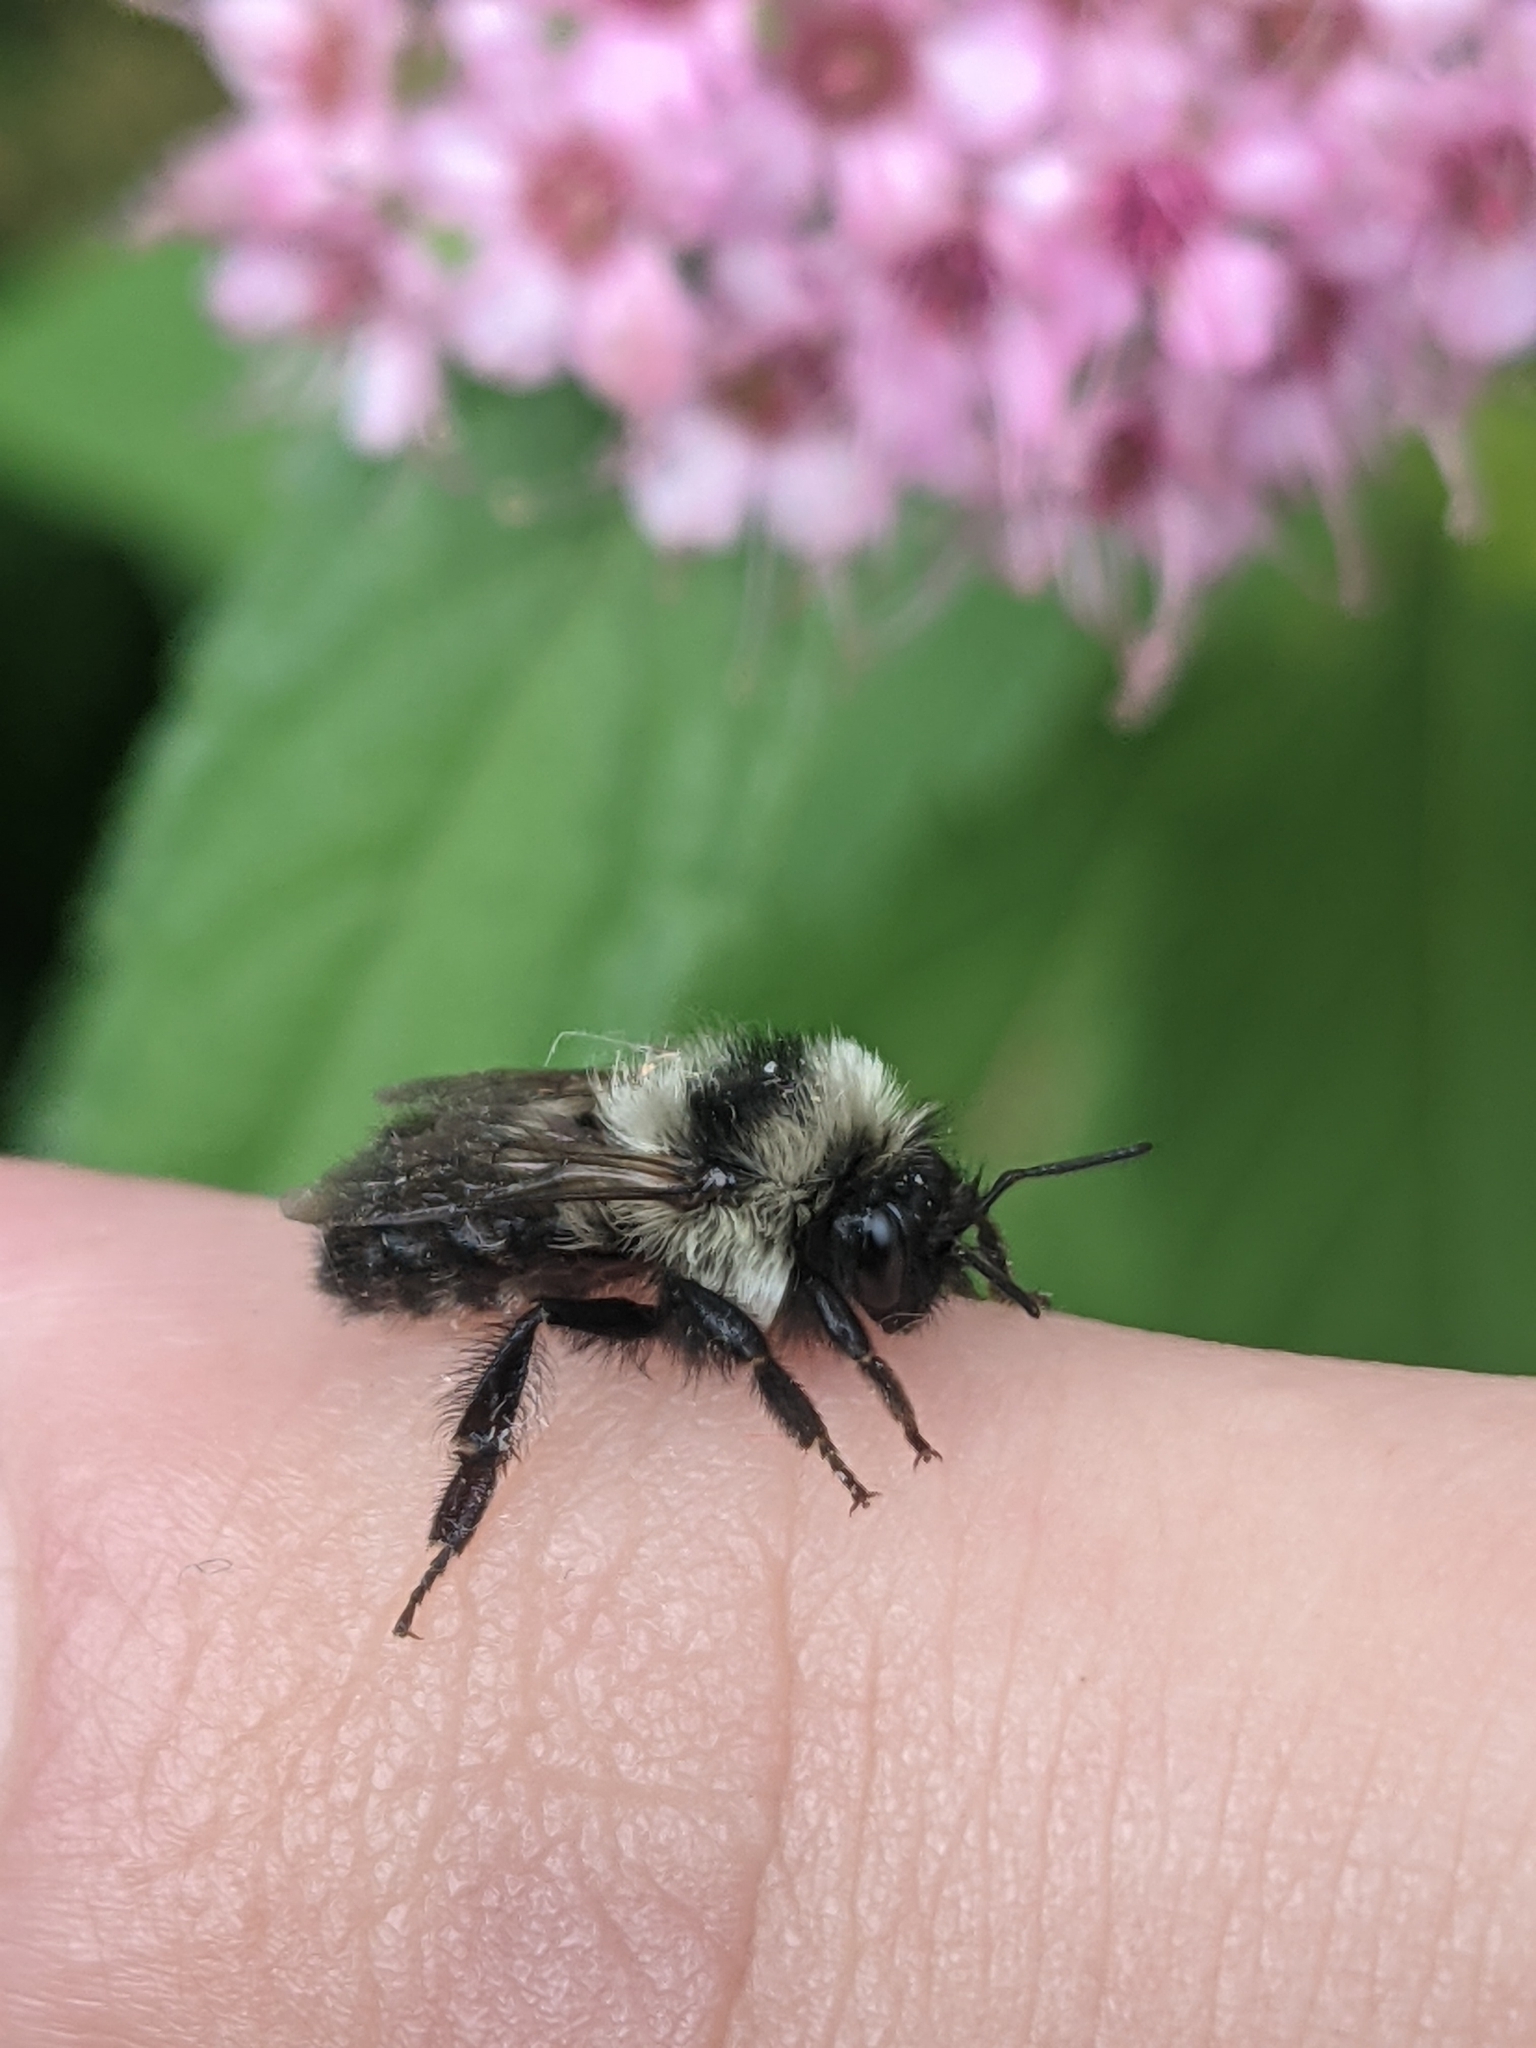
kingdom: Animalia
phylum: Arthropoda
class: Insecta
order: Hymenoptera
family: Apidae
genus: Bombus
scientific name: Bombus rufocinctus
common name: Red-belted bumble bee
